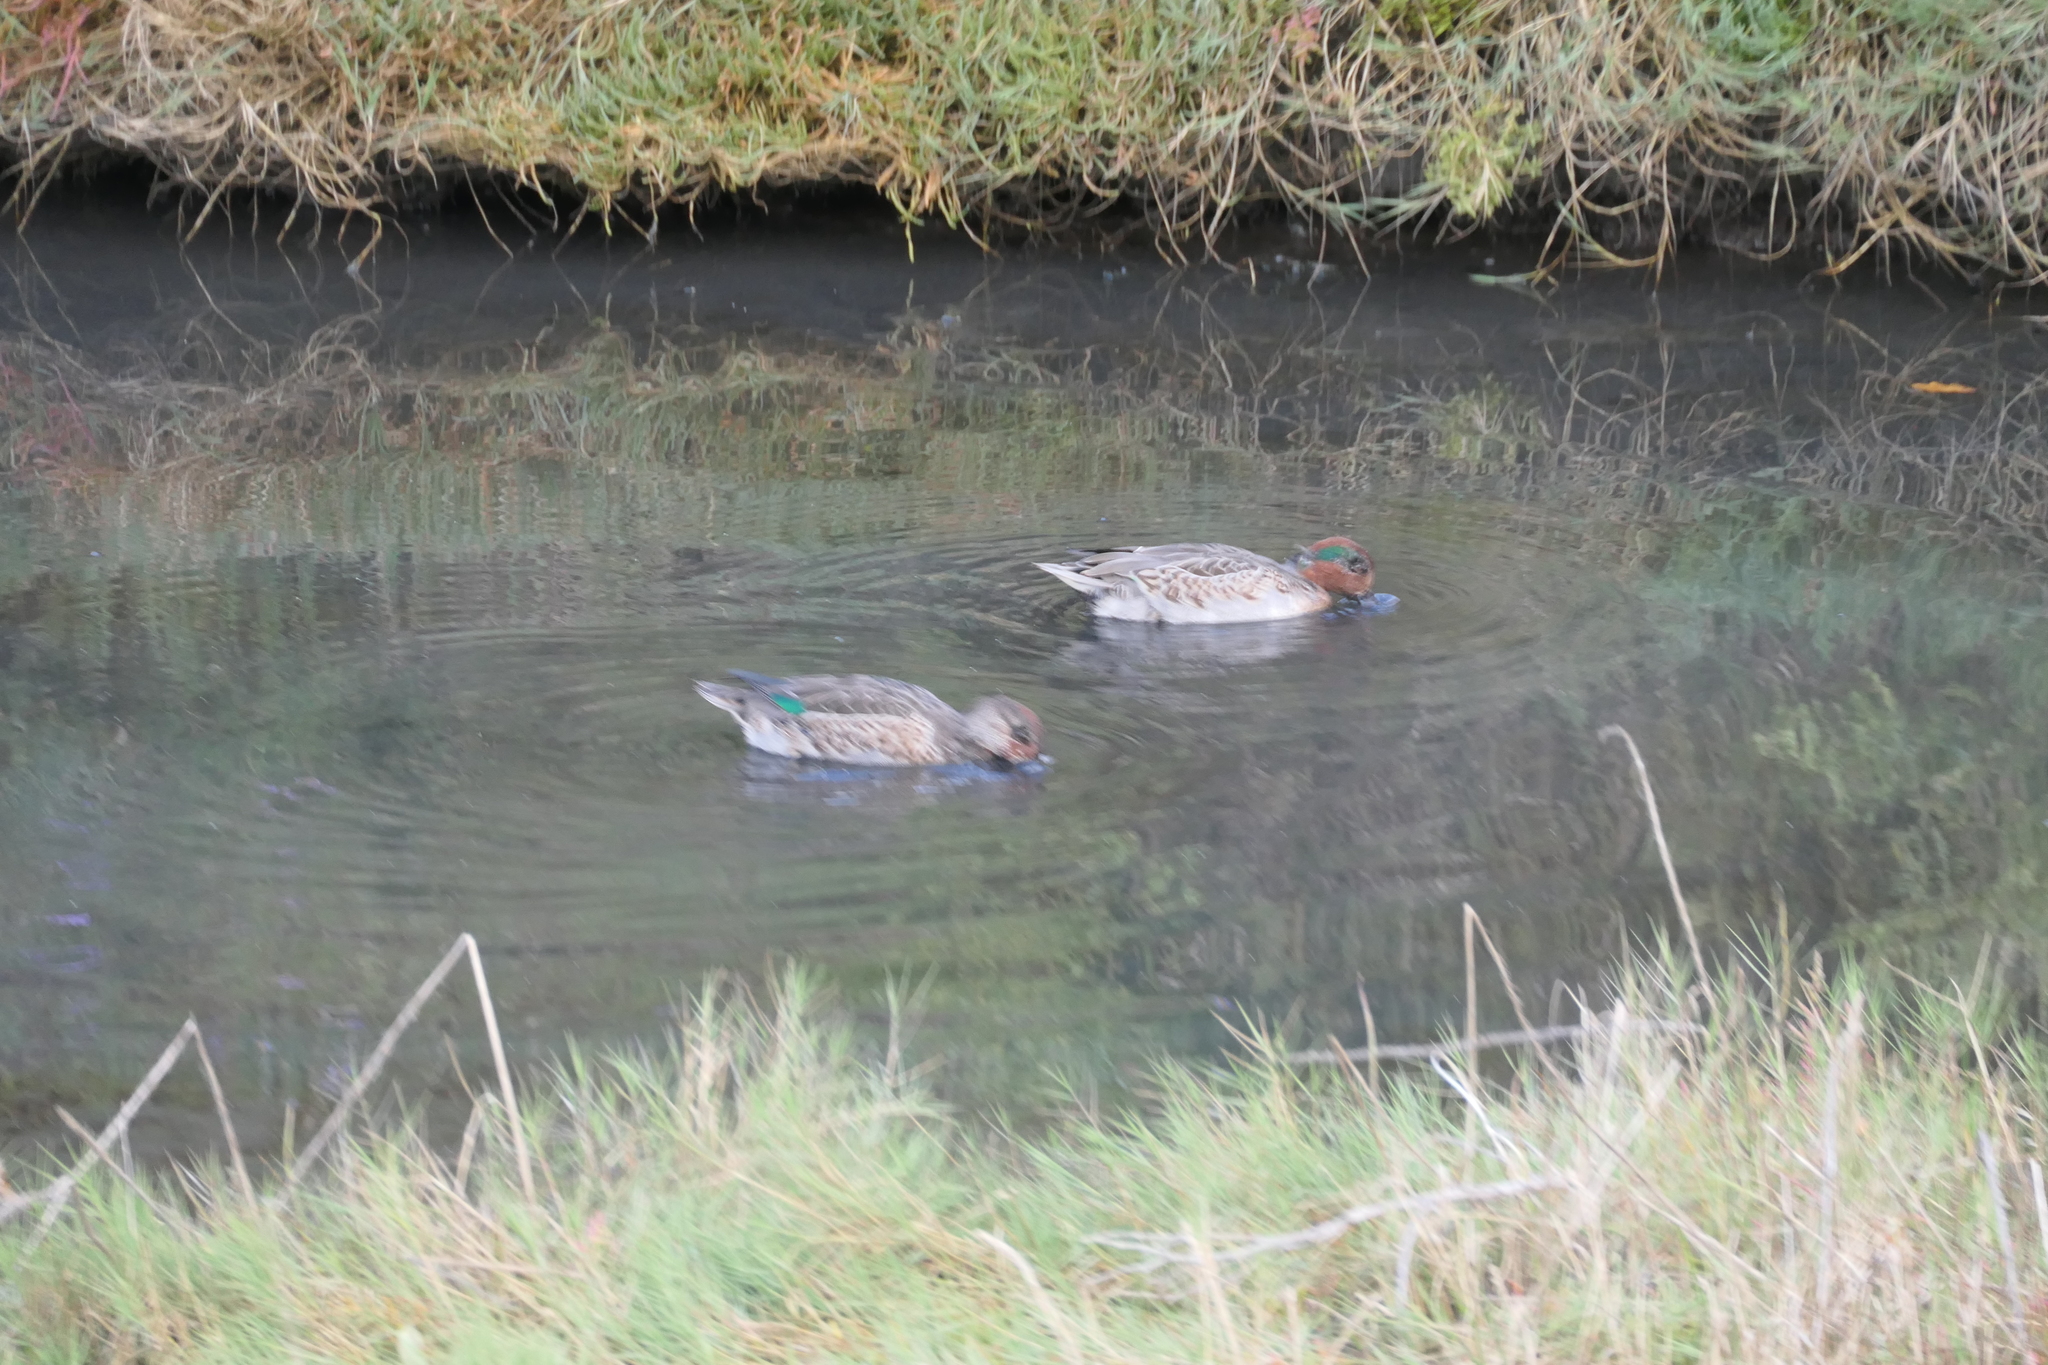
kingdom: Animalia
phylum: Chordata
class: Aves
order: Anseriformes
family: Anatidae
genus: Anas
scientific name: Anas crecca
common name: Eurasian teal
